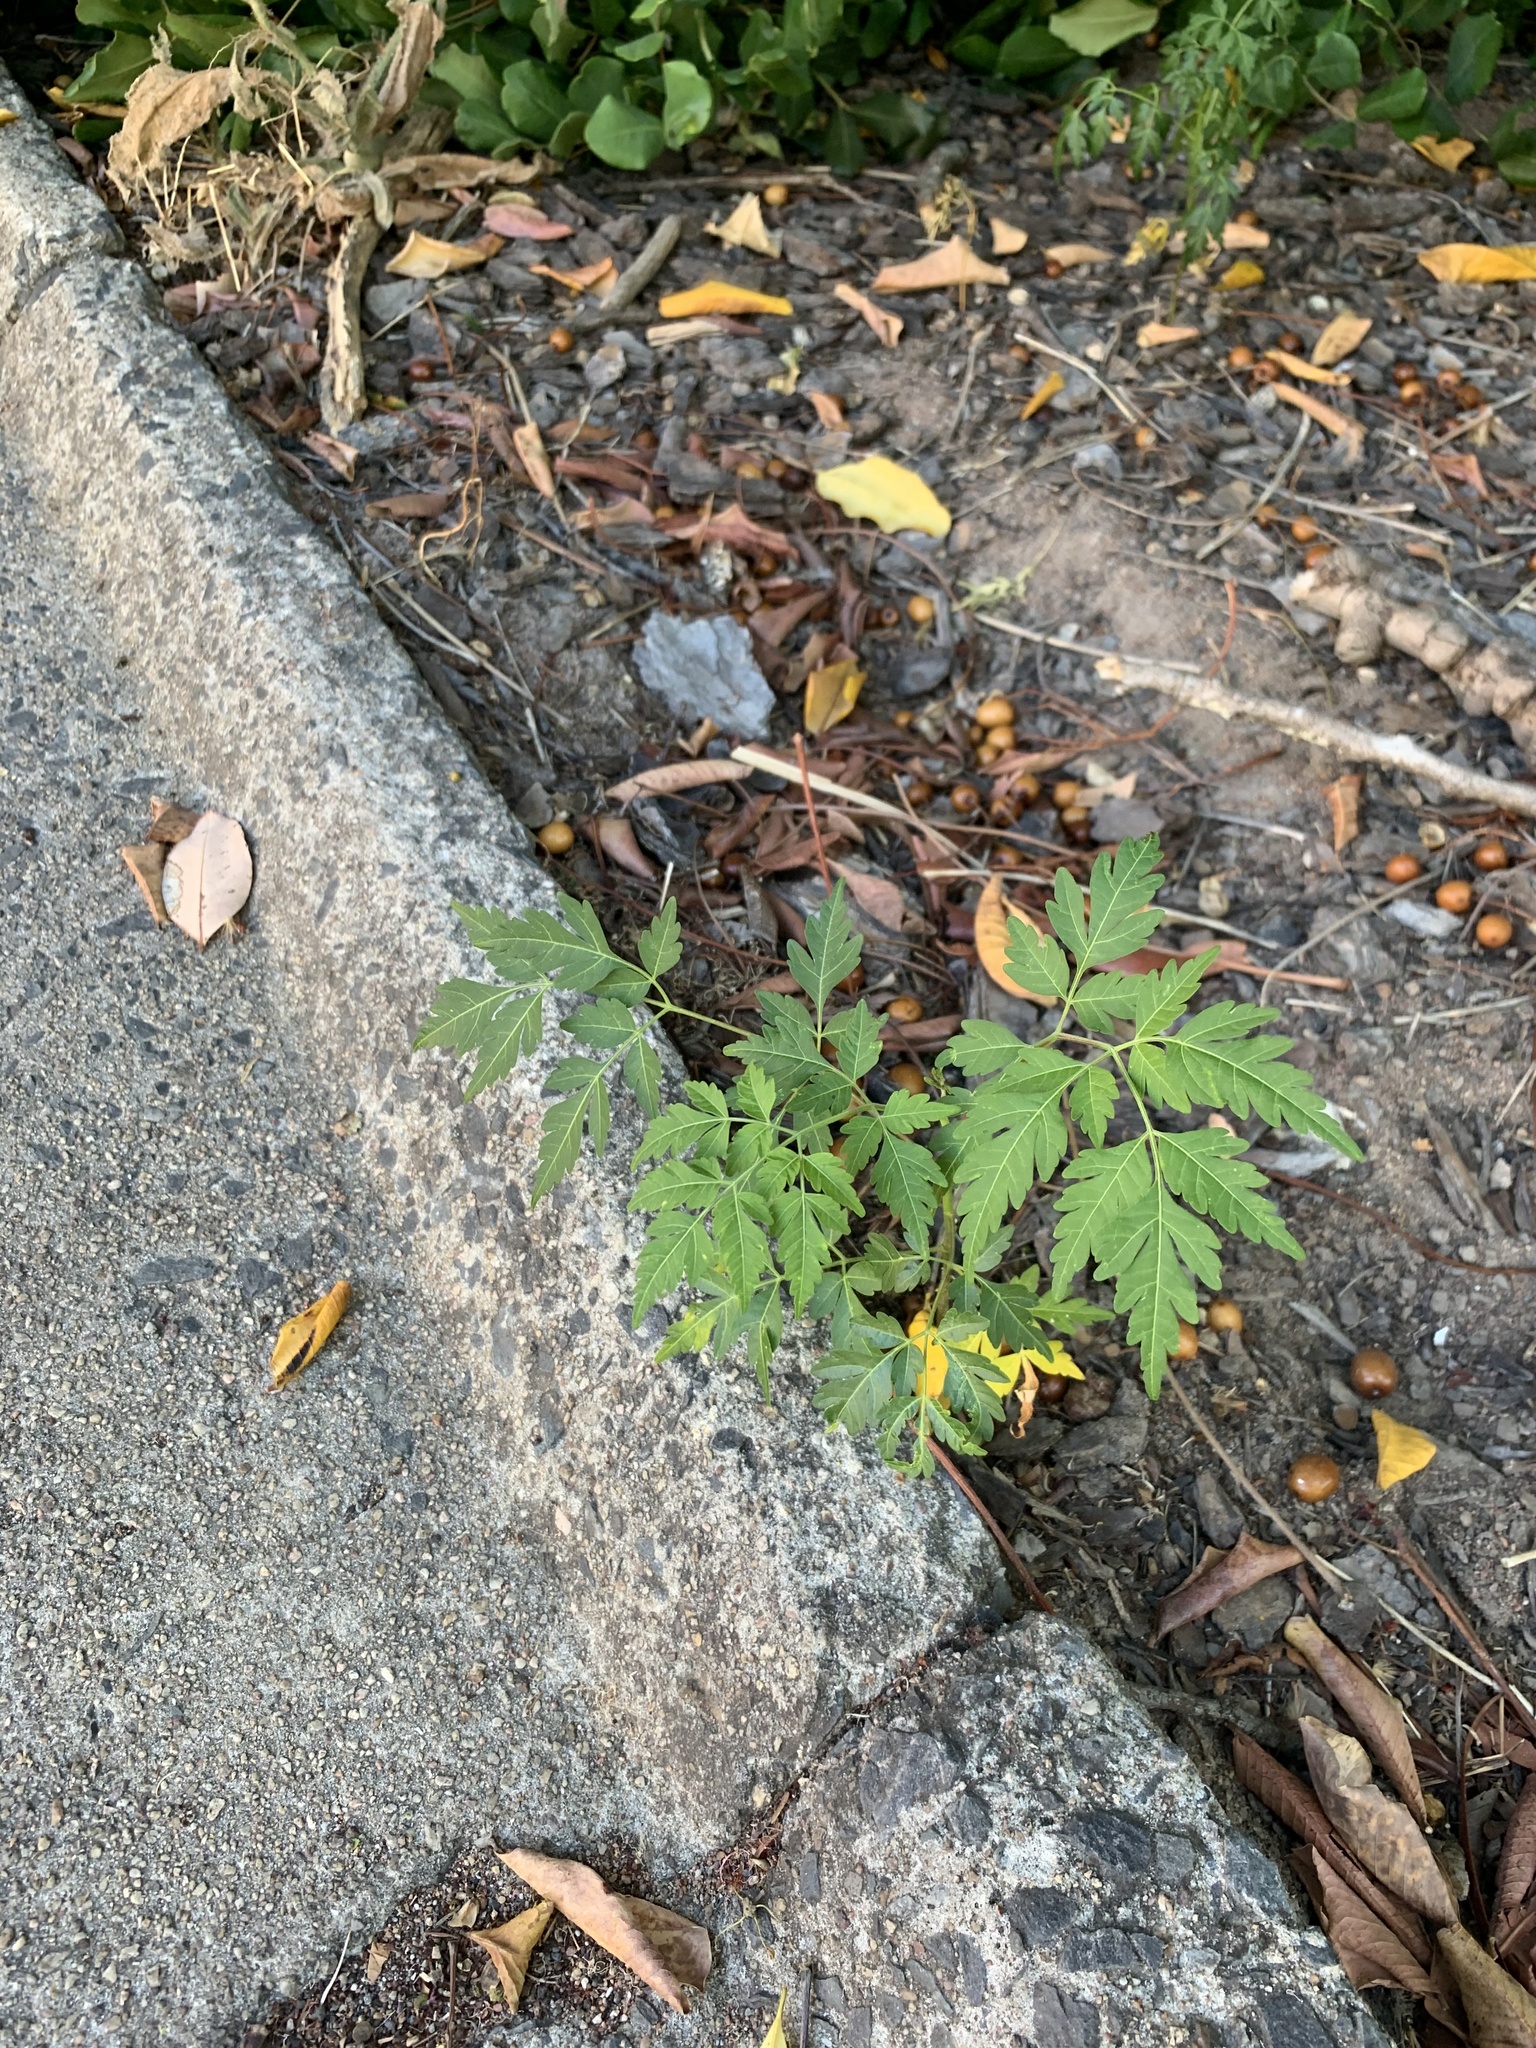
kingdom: Plantae
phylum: Tracheophyta
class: Magnoliopsida
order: Sapindales
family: Meliaceae
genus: Melia
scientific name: Melia azedarach
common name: Chinaberrytree
